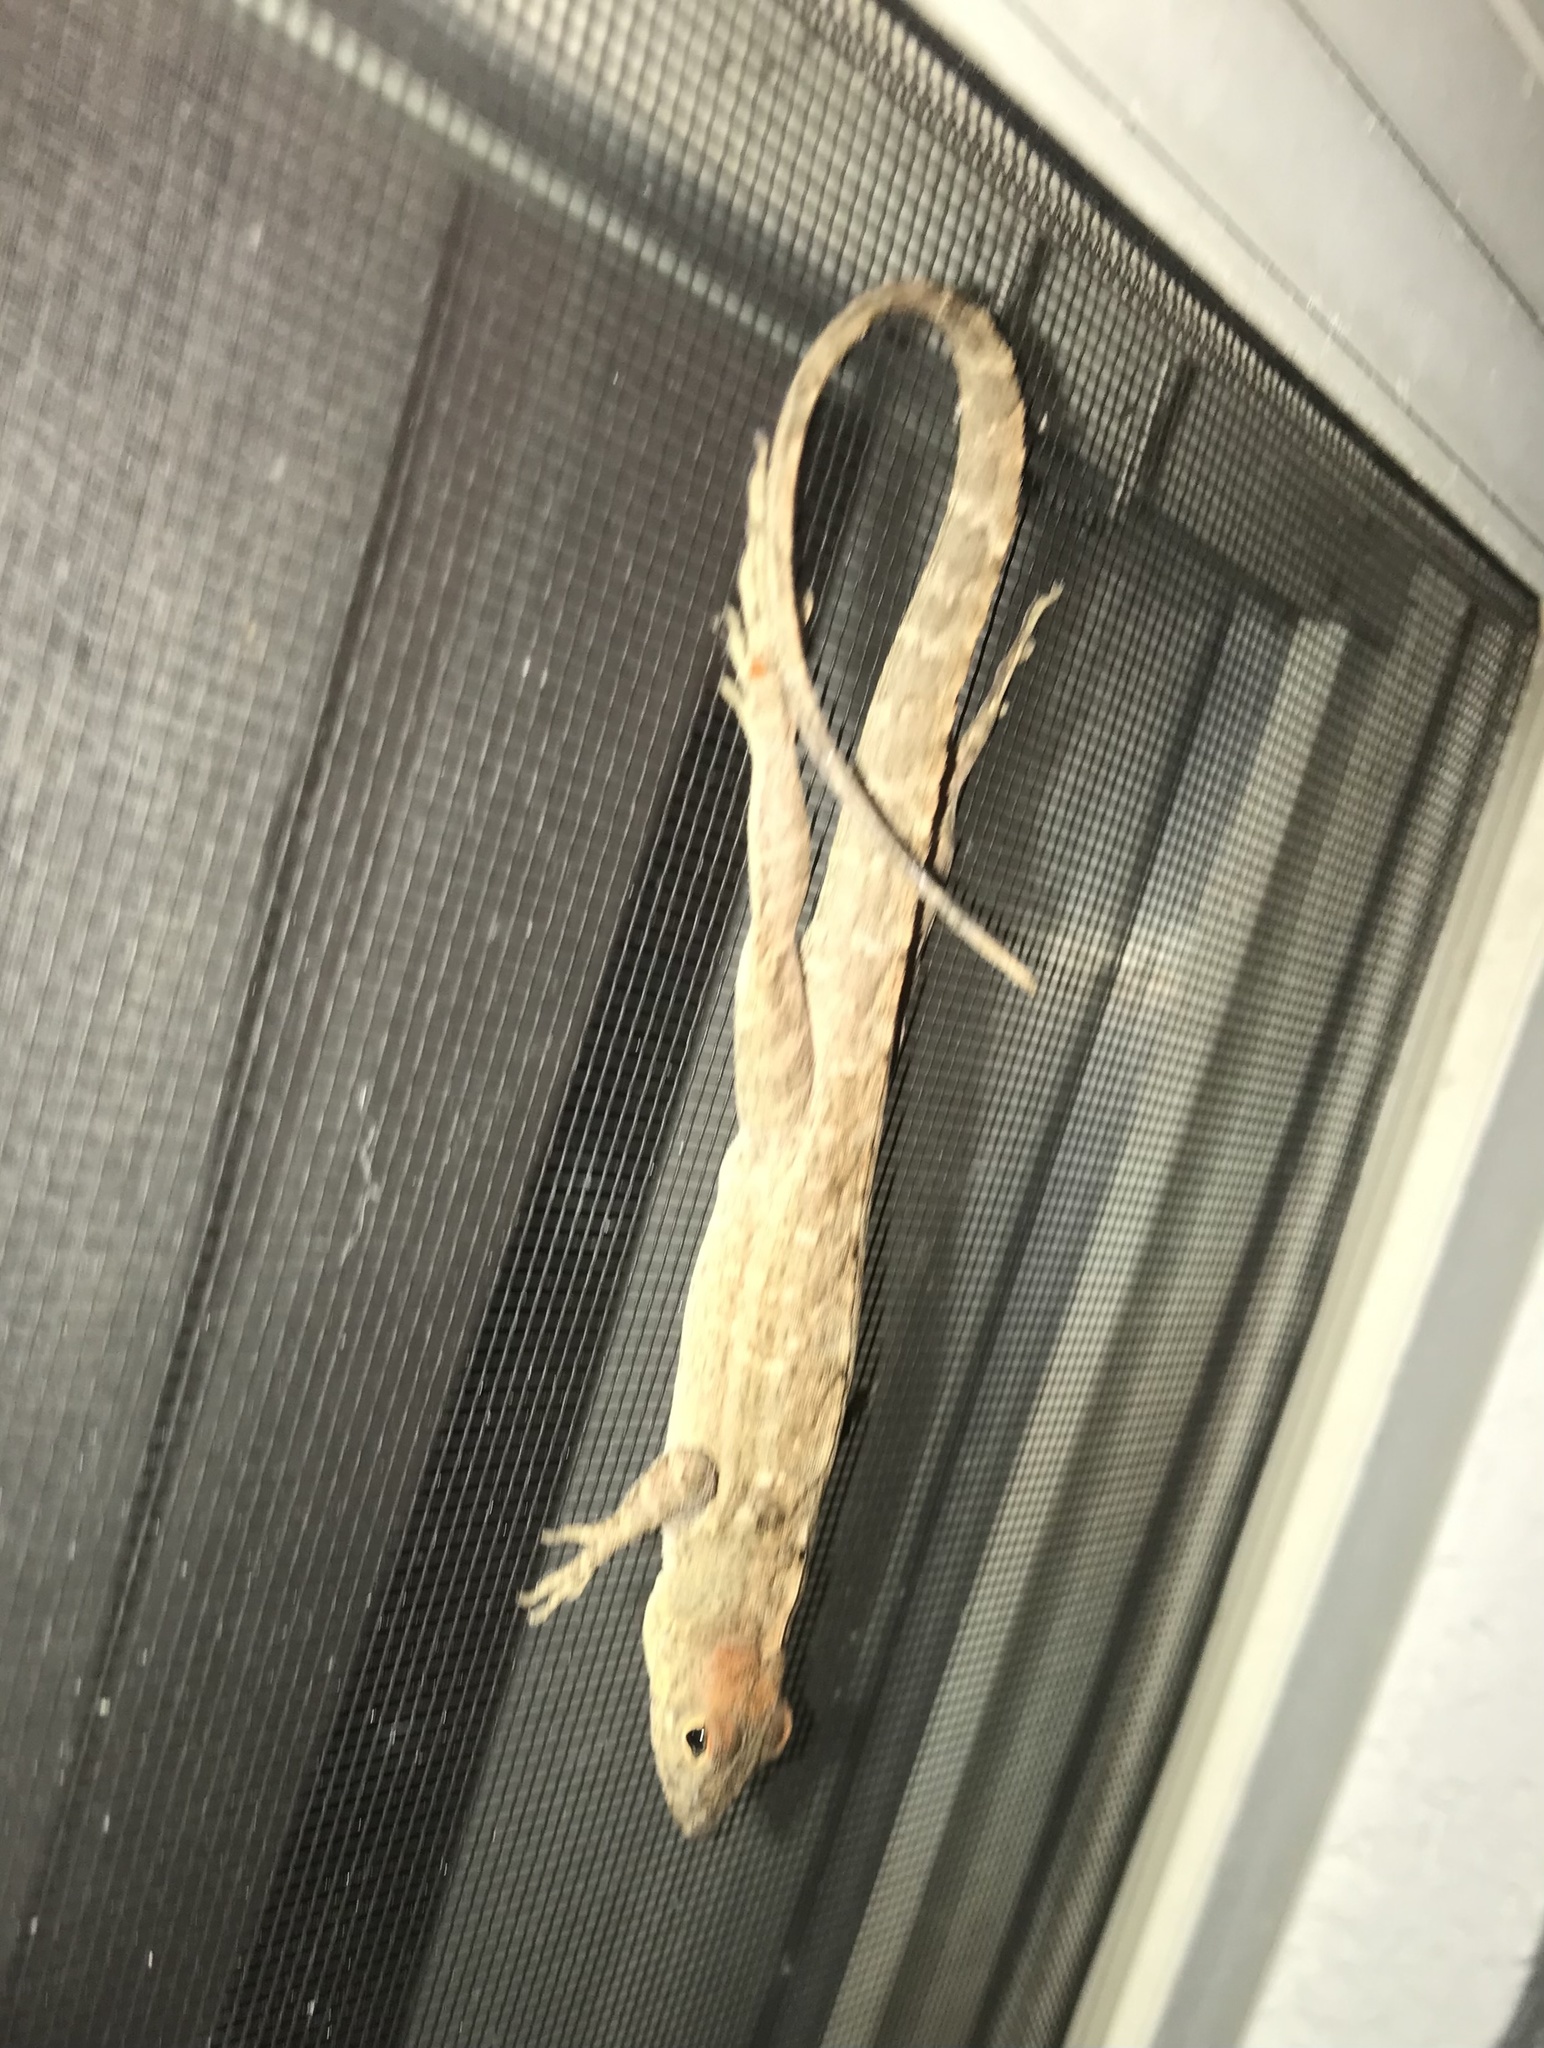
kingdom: Animalia
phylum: Chordata
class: Squamata
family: Dactyloidae
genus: Anolis
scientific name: Anolis sagrei
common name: Brown anole
